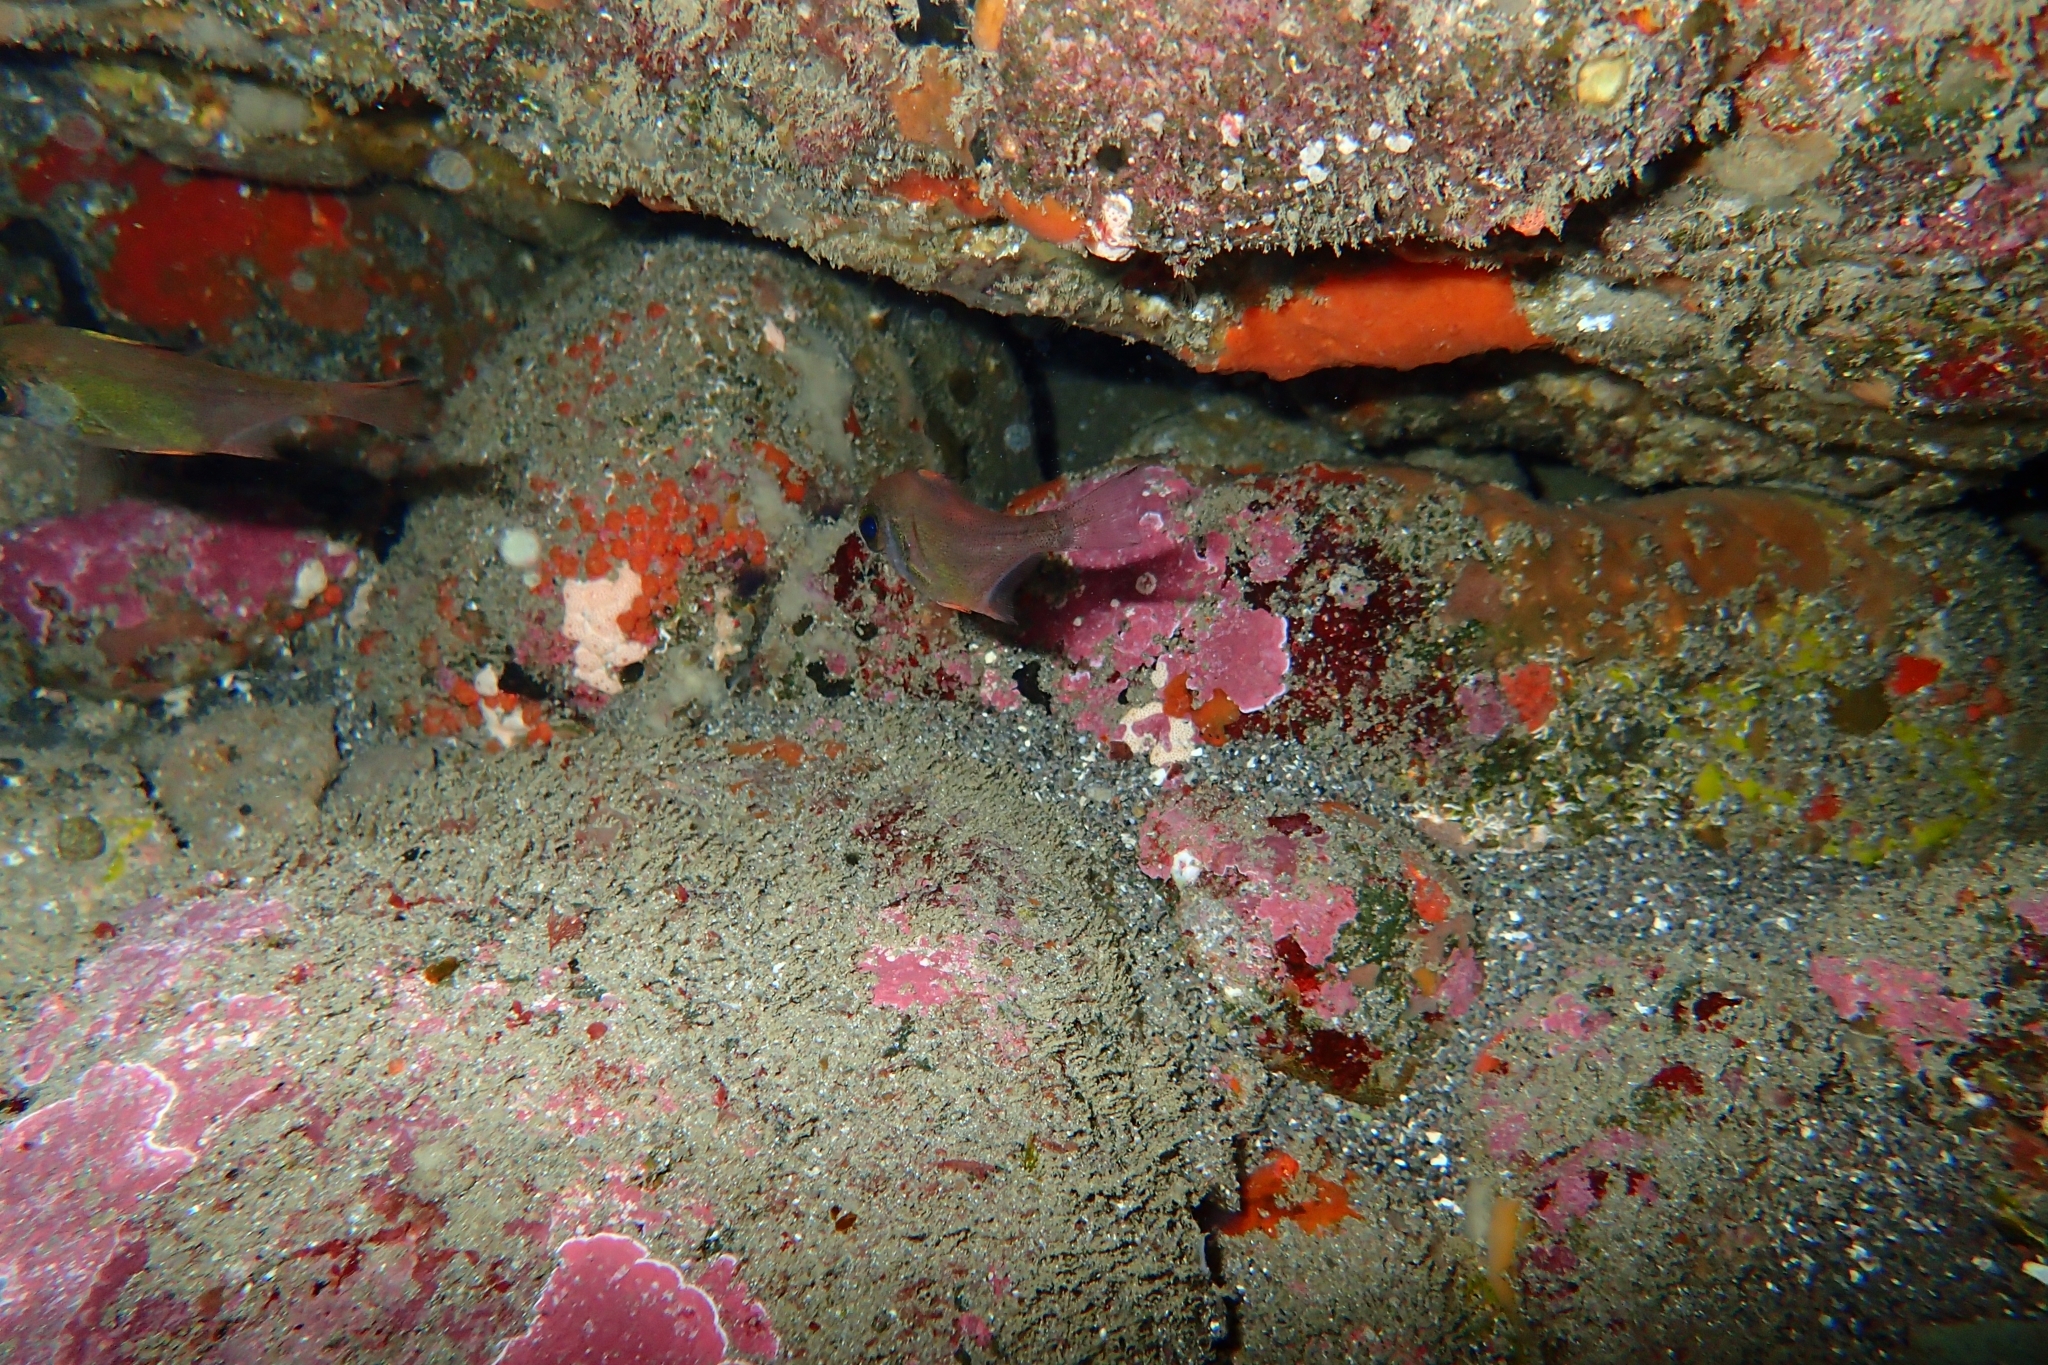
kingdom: Animalia
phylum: Chordata
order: Perciformes
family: Pempheridae
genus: Pempheris
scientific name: Pempheris adspersa
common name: Bigeye
